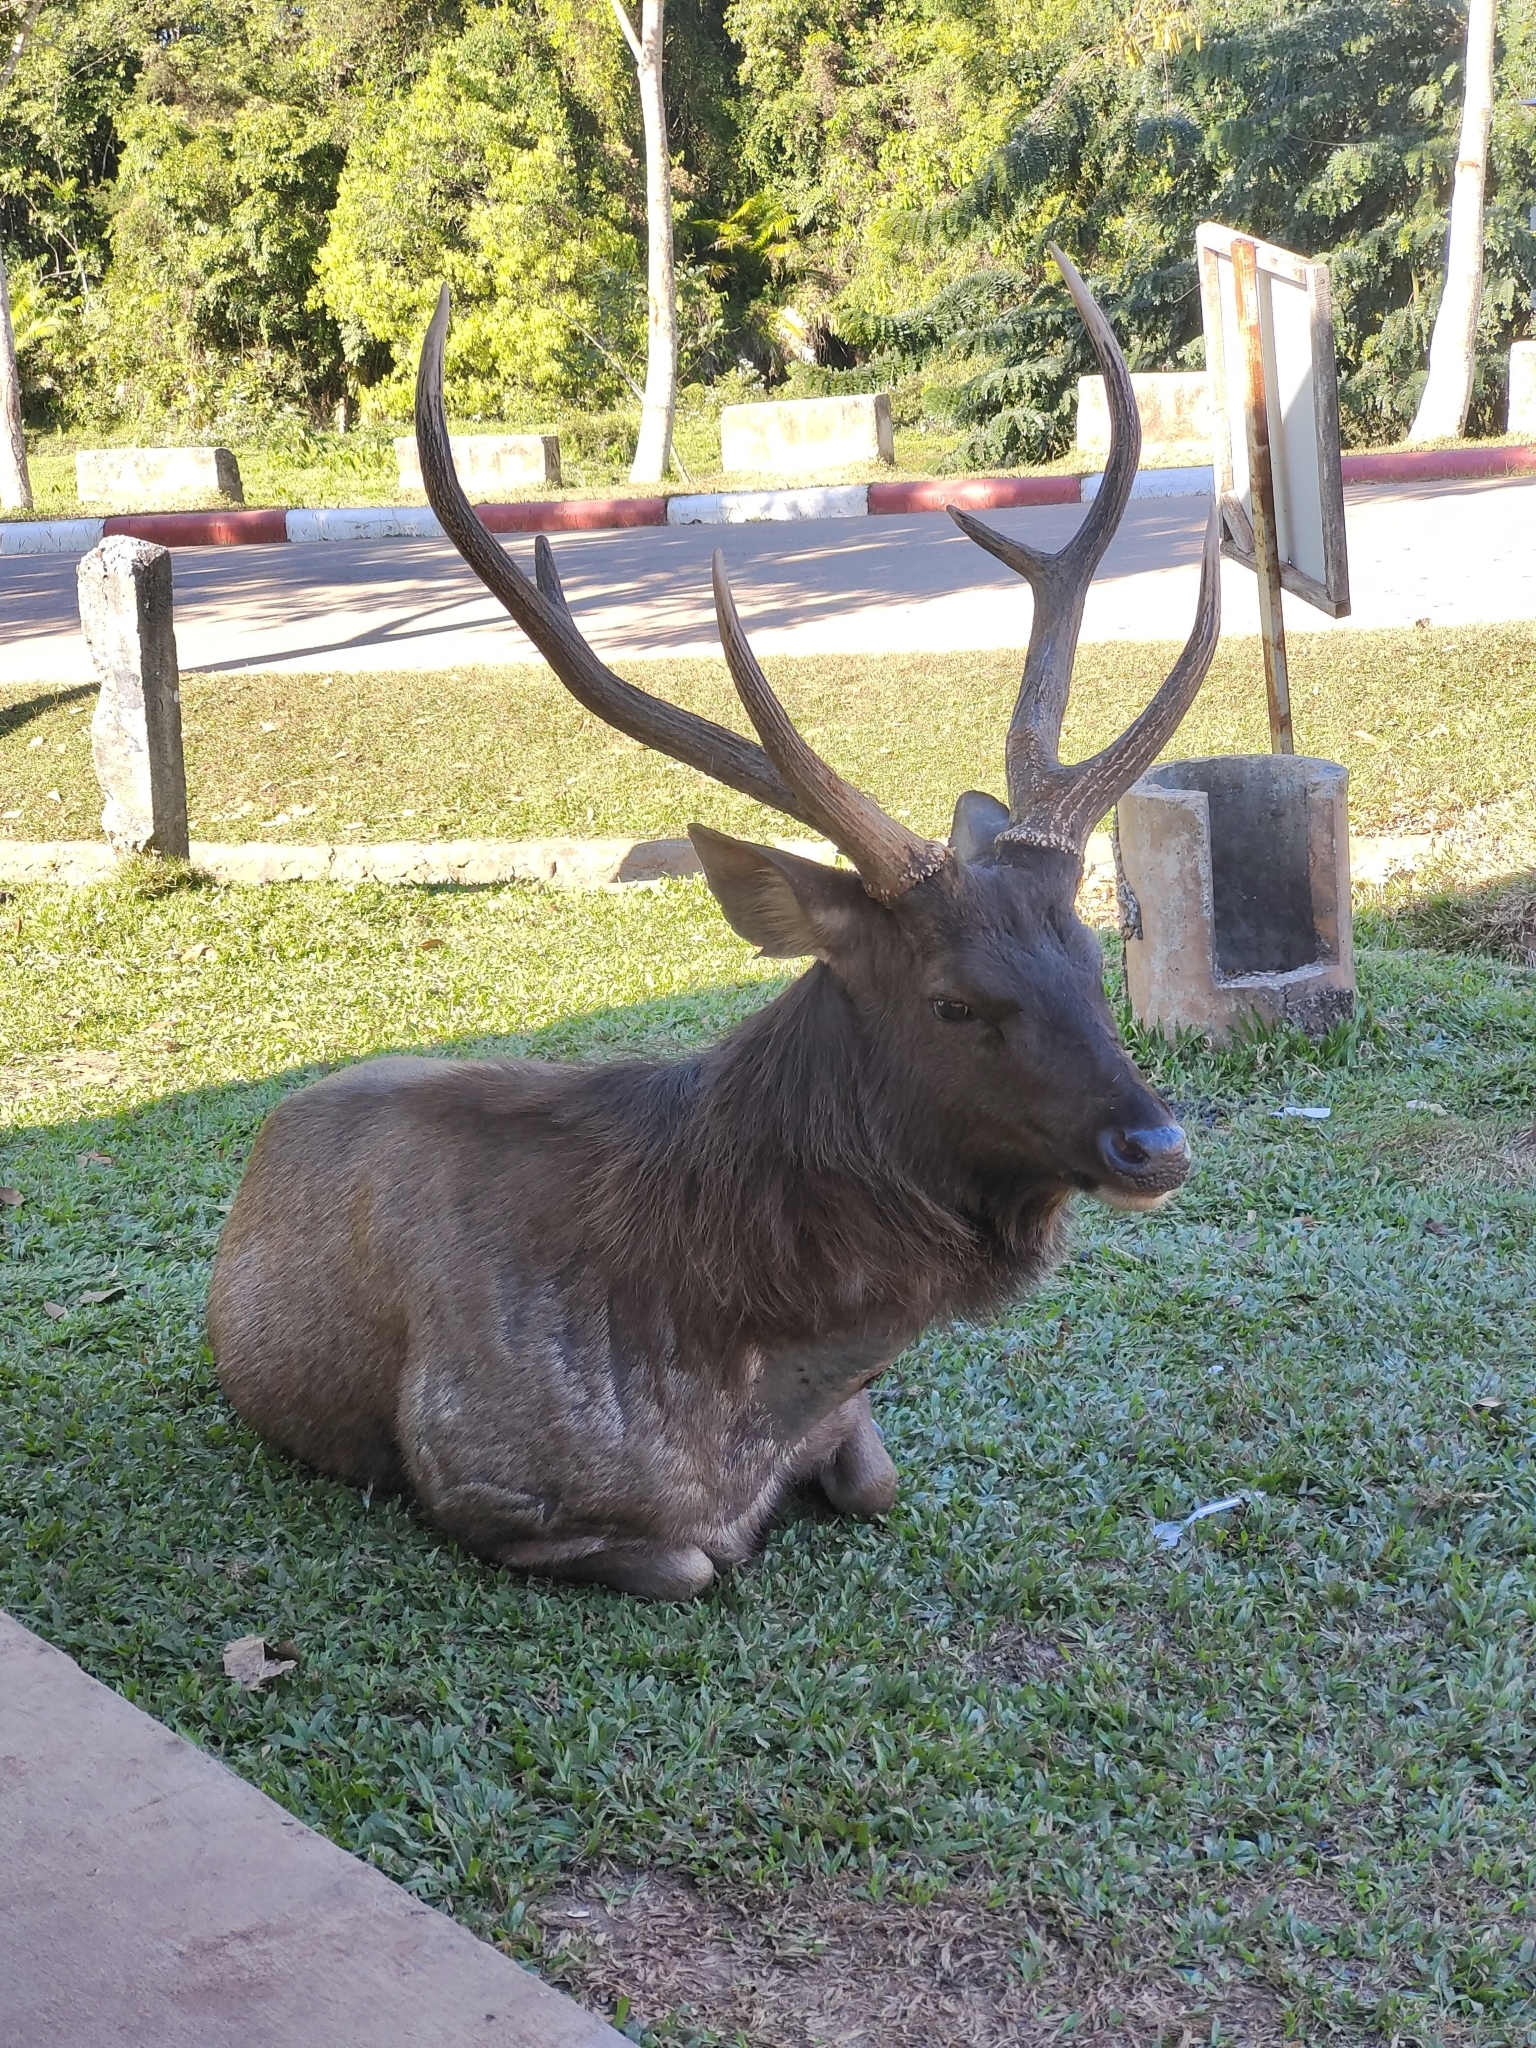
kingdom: Animalia
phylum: Chordata
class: Mammalia
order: Artiodactyla
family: Cervidae
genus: Rusa
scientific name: Rusa unicolor
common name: Sambar
